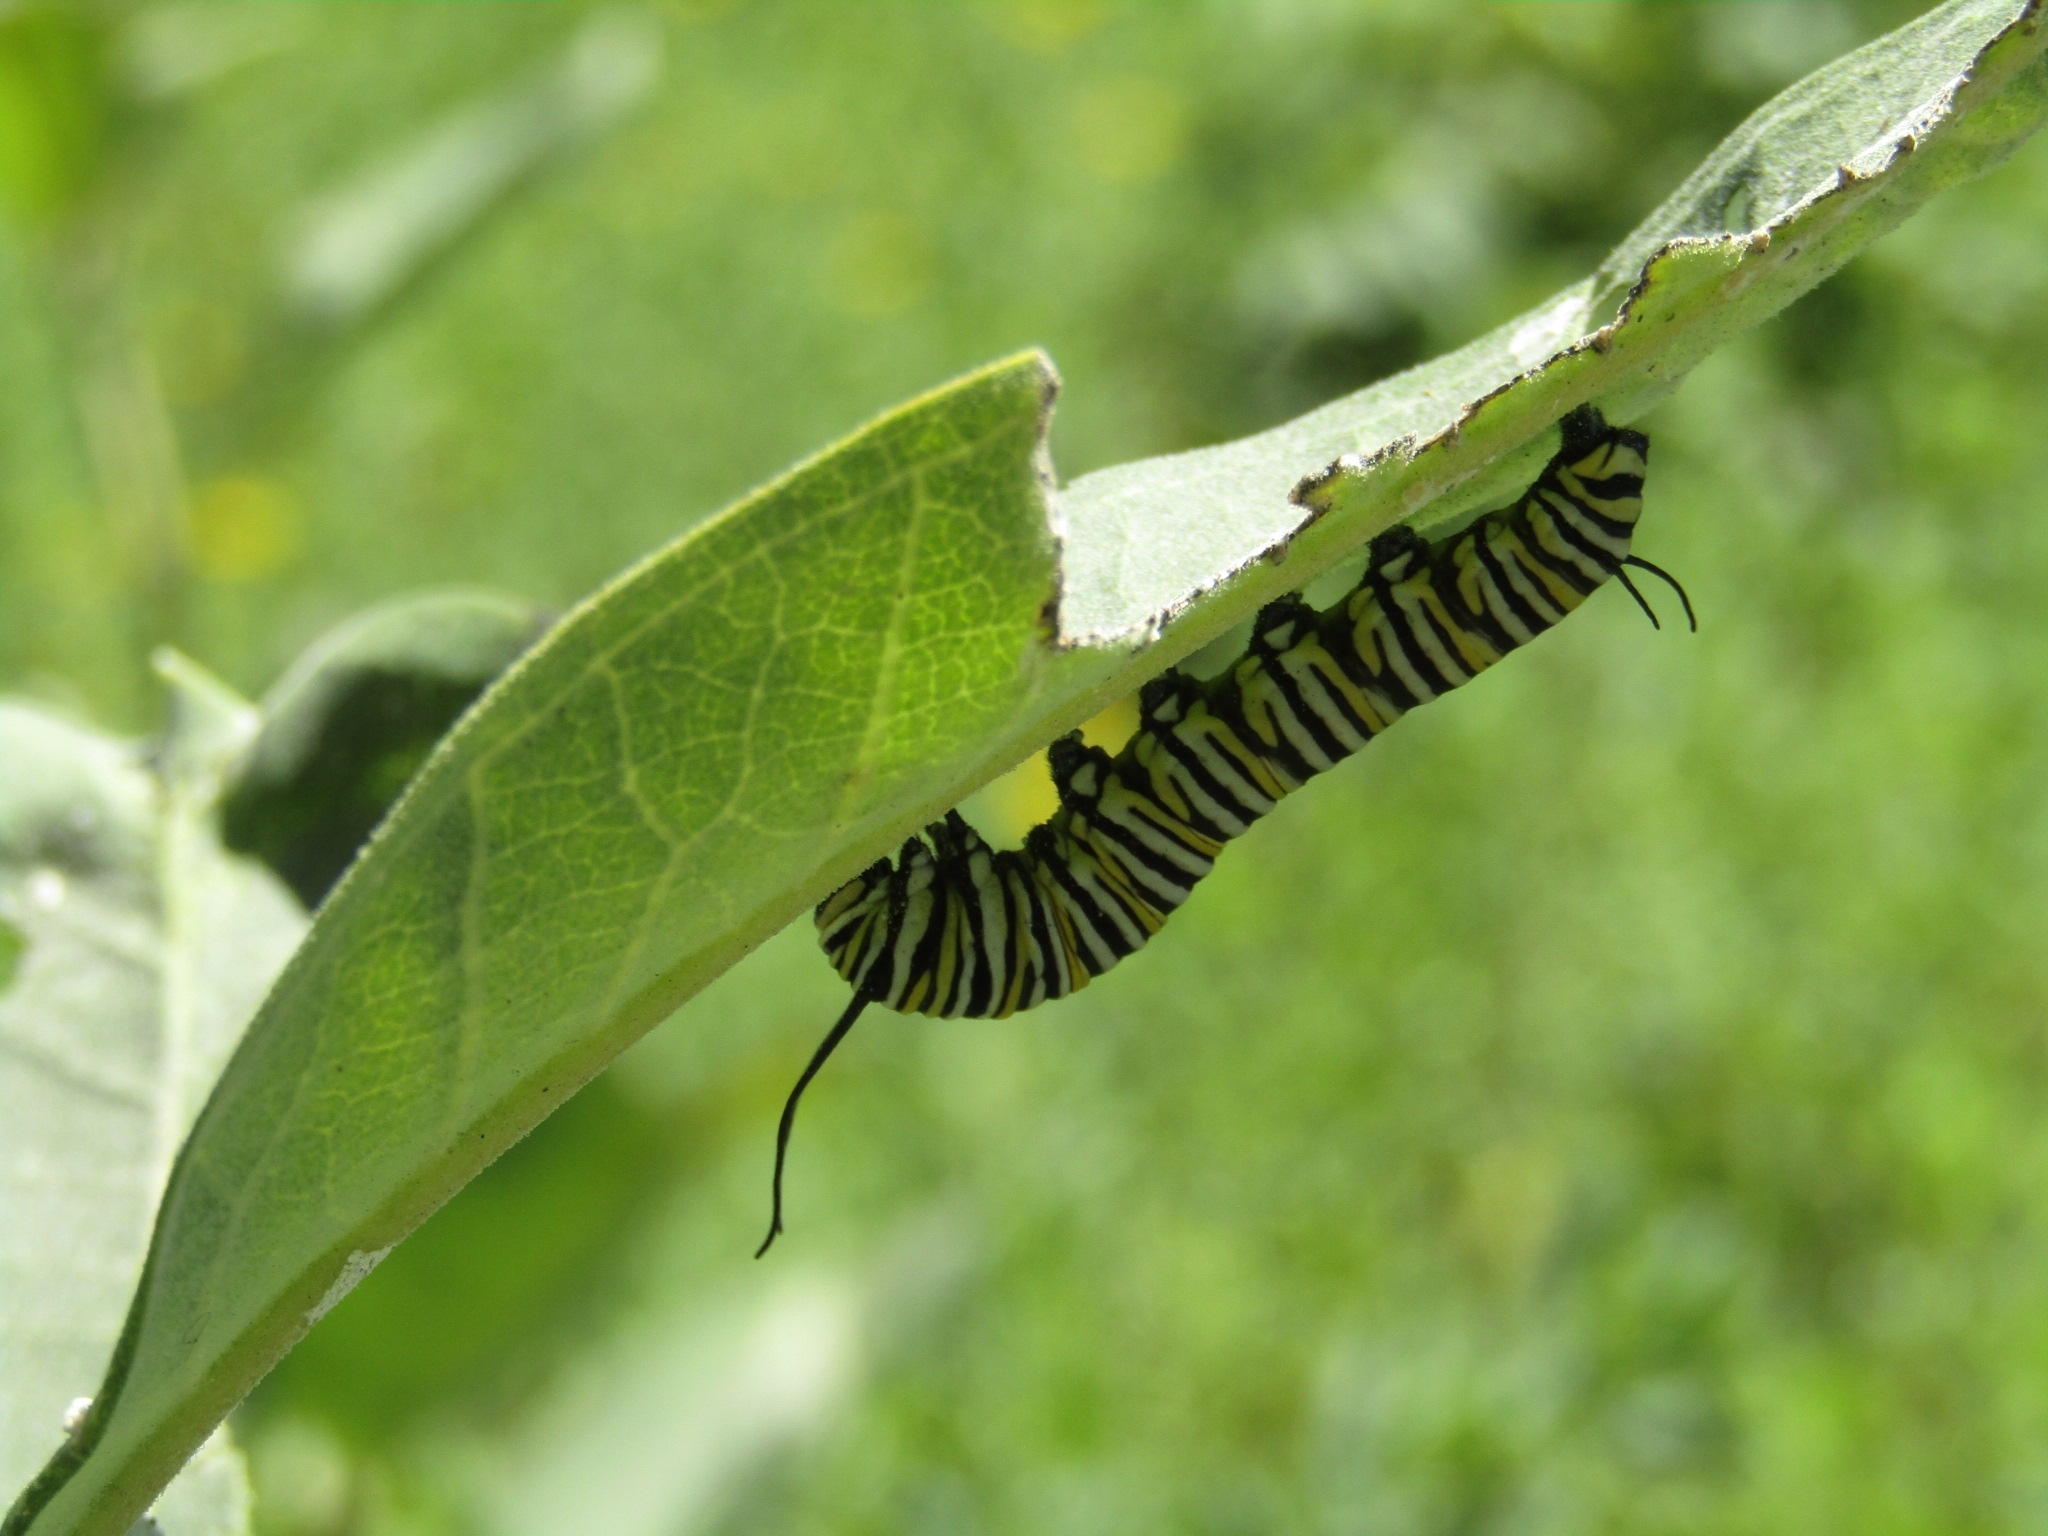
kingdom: Animalia
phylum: Arthropoda
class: Insecta
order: Lepidoptera
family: Nymphalidae
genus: Danaus
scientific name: Danaus plexippus
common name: Monarch
